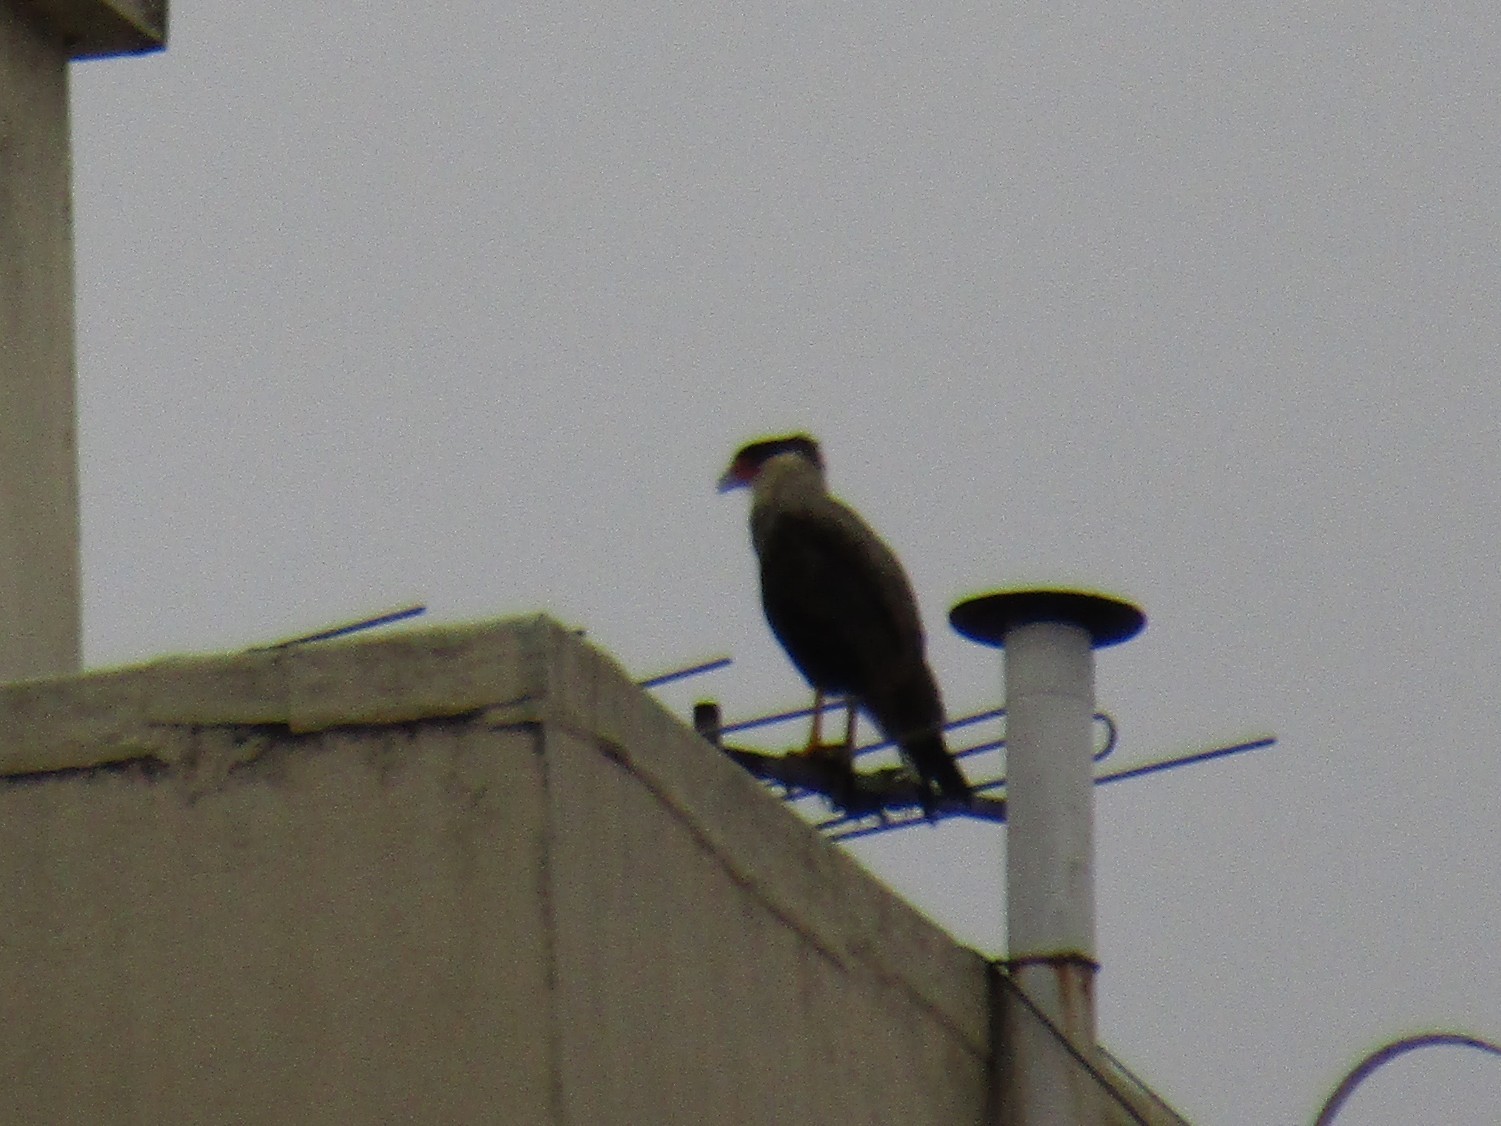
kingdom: Animalia
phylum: Chordata
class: Aves
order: Falconiformes
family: Falconidae
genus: Caracara
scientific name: Caracara plancus
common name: Southern caracara
